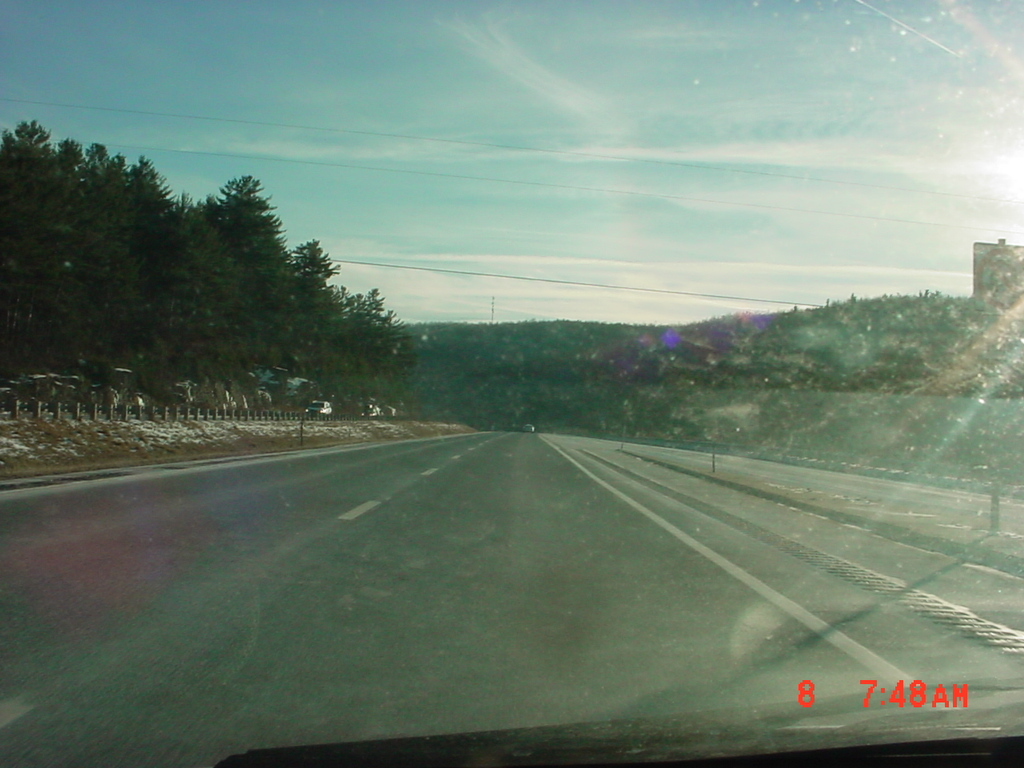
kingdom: Plantae
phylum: Tracheophyta
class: Pinopsida
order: Pinales
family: Pinaceae
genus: Pinus
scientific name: Pinus strobus
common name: Weymouth pine
